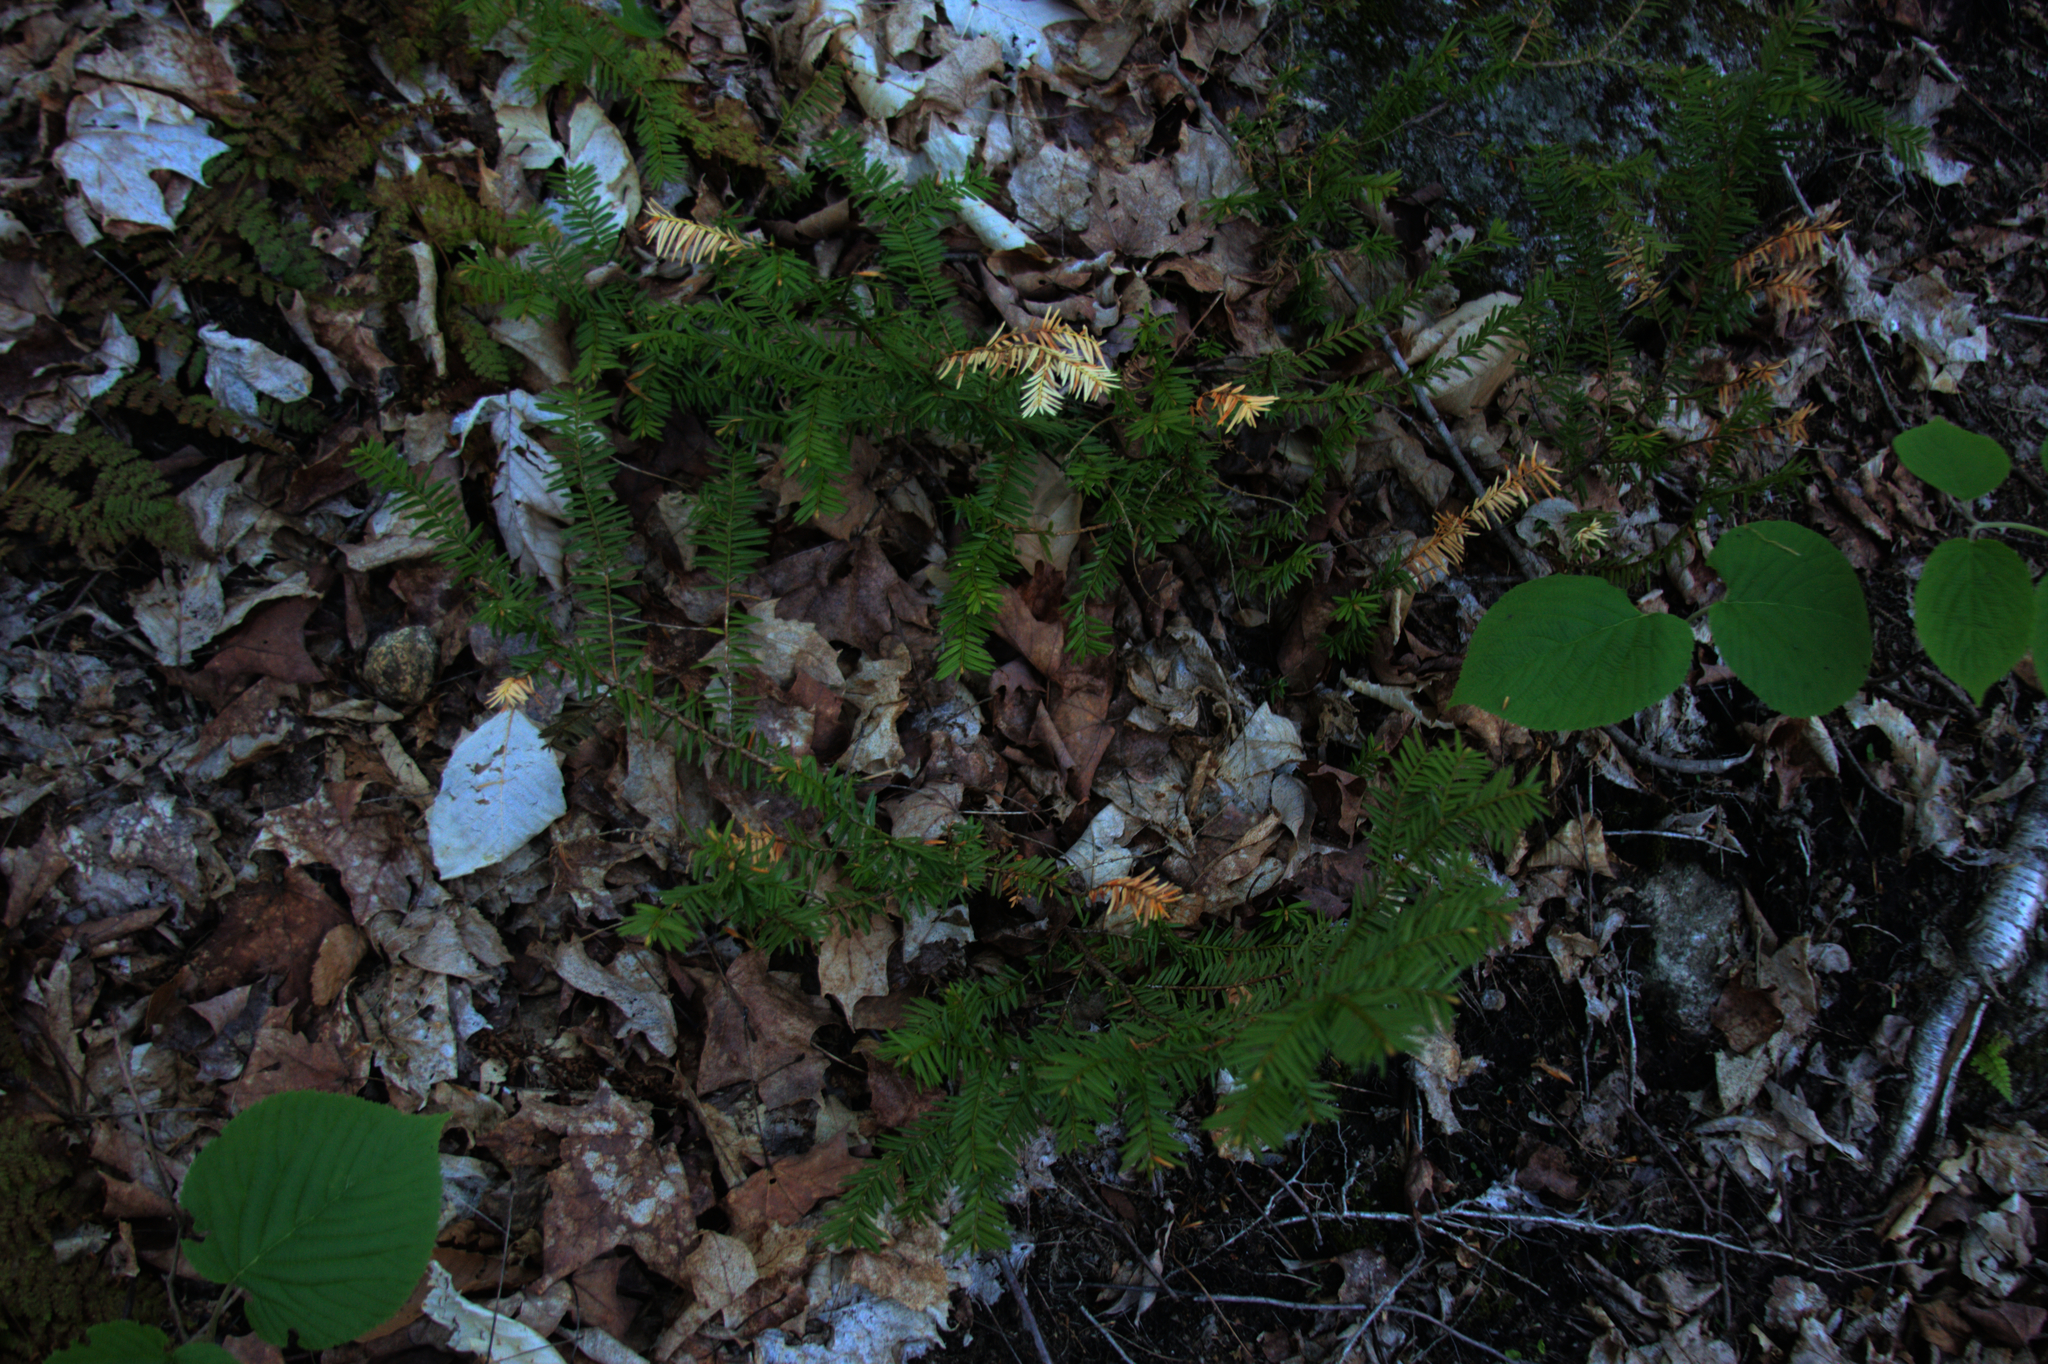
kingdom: Plantae
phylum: Tracheophyta
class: Magnoliopsida
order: Dipsacales
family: Viburnaceae
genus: Viburnum
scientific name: Viburnum lantanoides
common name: Hobblebush
